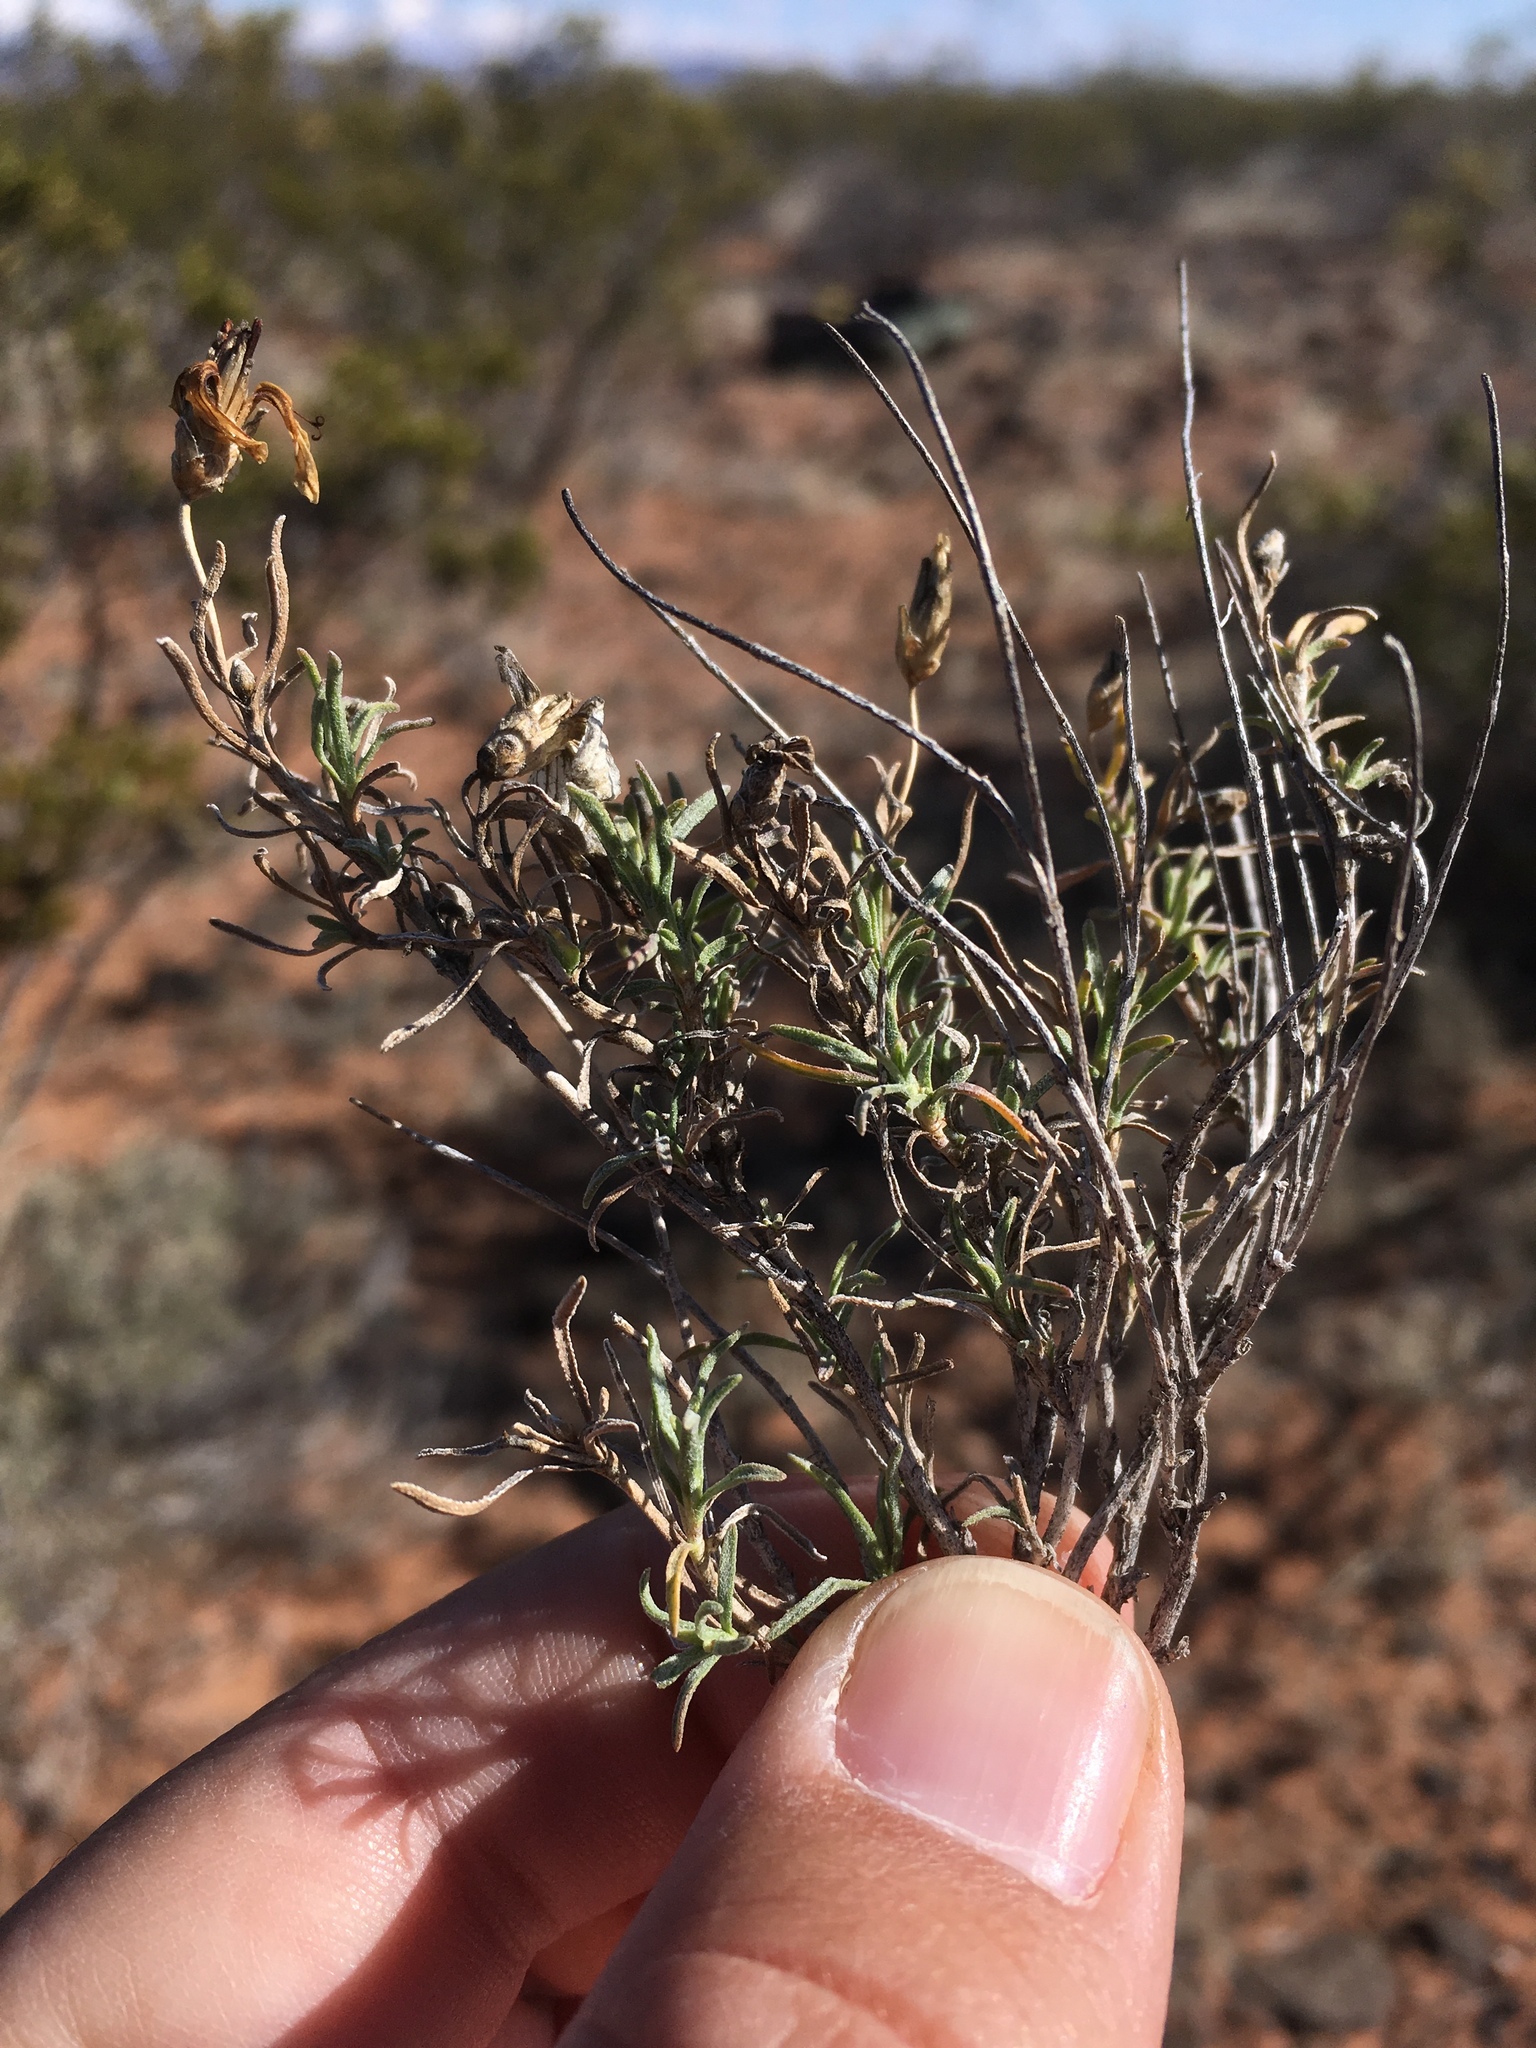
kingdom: Plantae
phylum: Tracheophyta
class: Magnoliopsida
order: Asterales
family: Asteraceae
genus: Zinnia
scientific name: Zinnia acerosa
